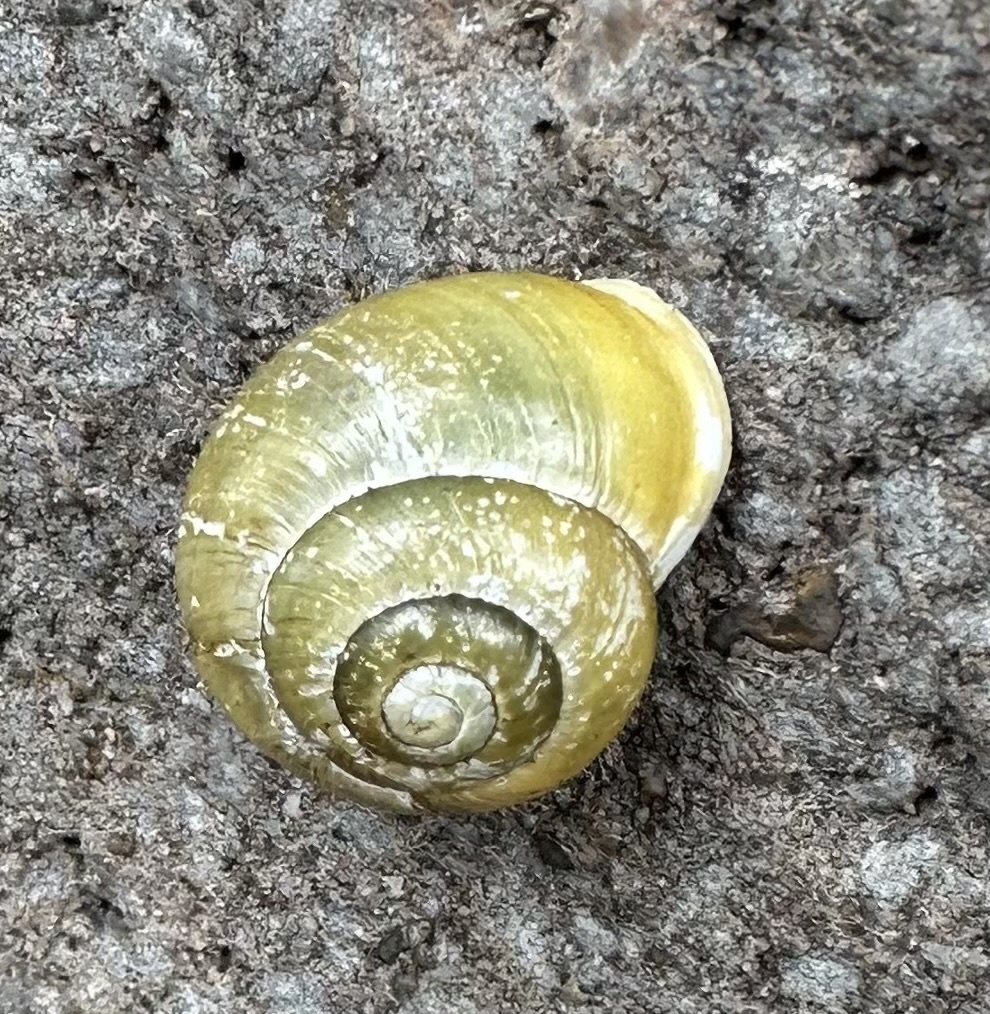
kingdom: Animalia
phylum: Mollusca
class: Gastropoda
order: Stylommatophora
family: Helicidae
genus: Cepaea
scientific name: Cepaea hortensis
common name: White-lip gardensnail
